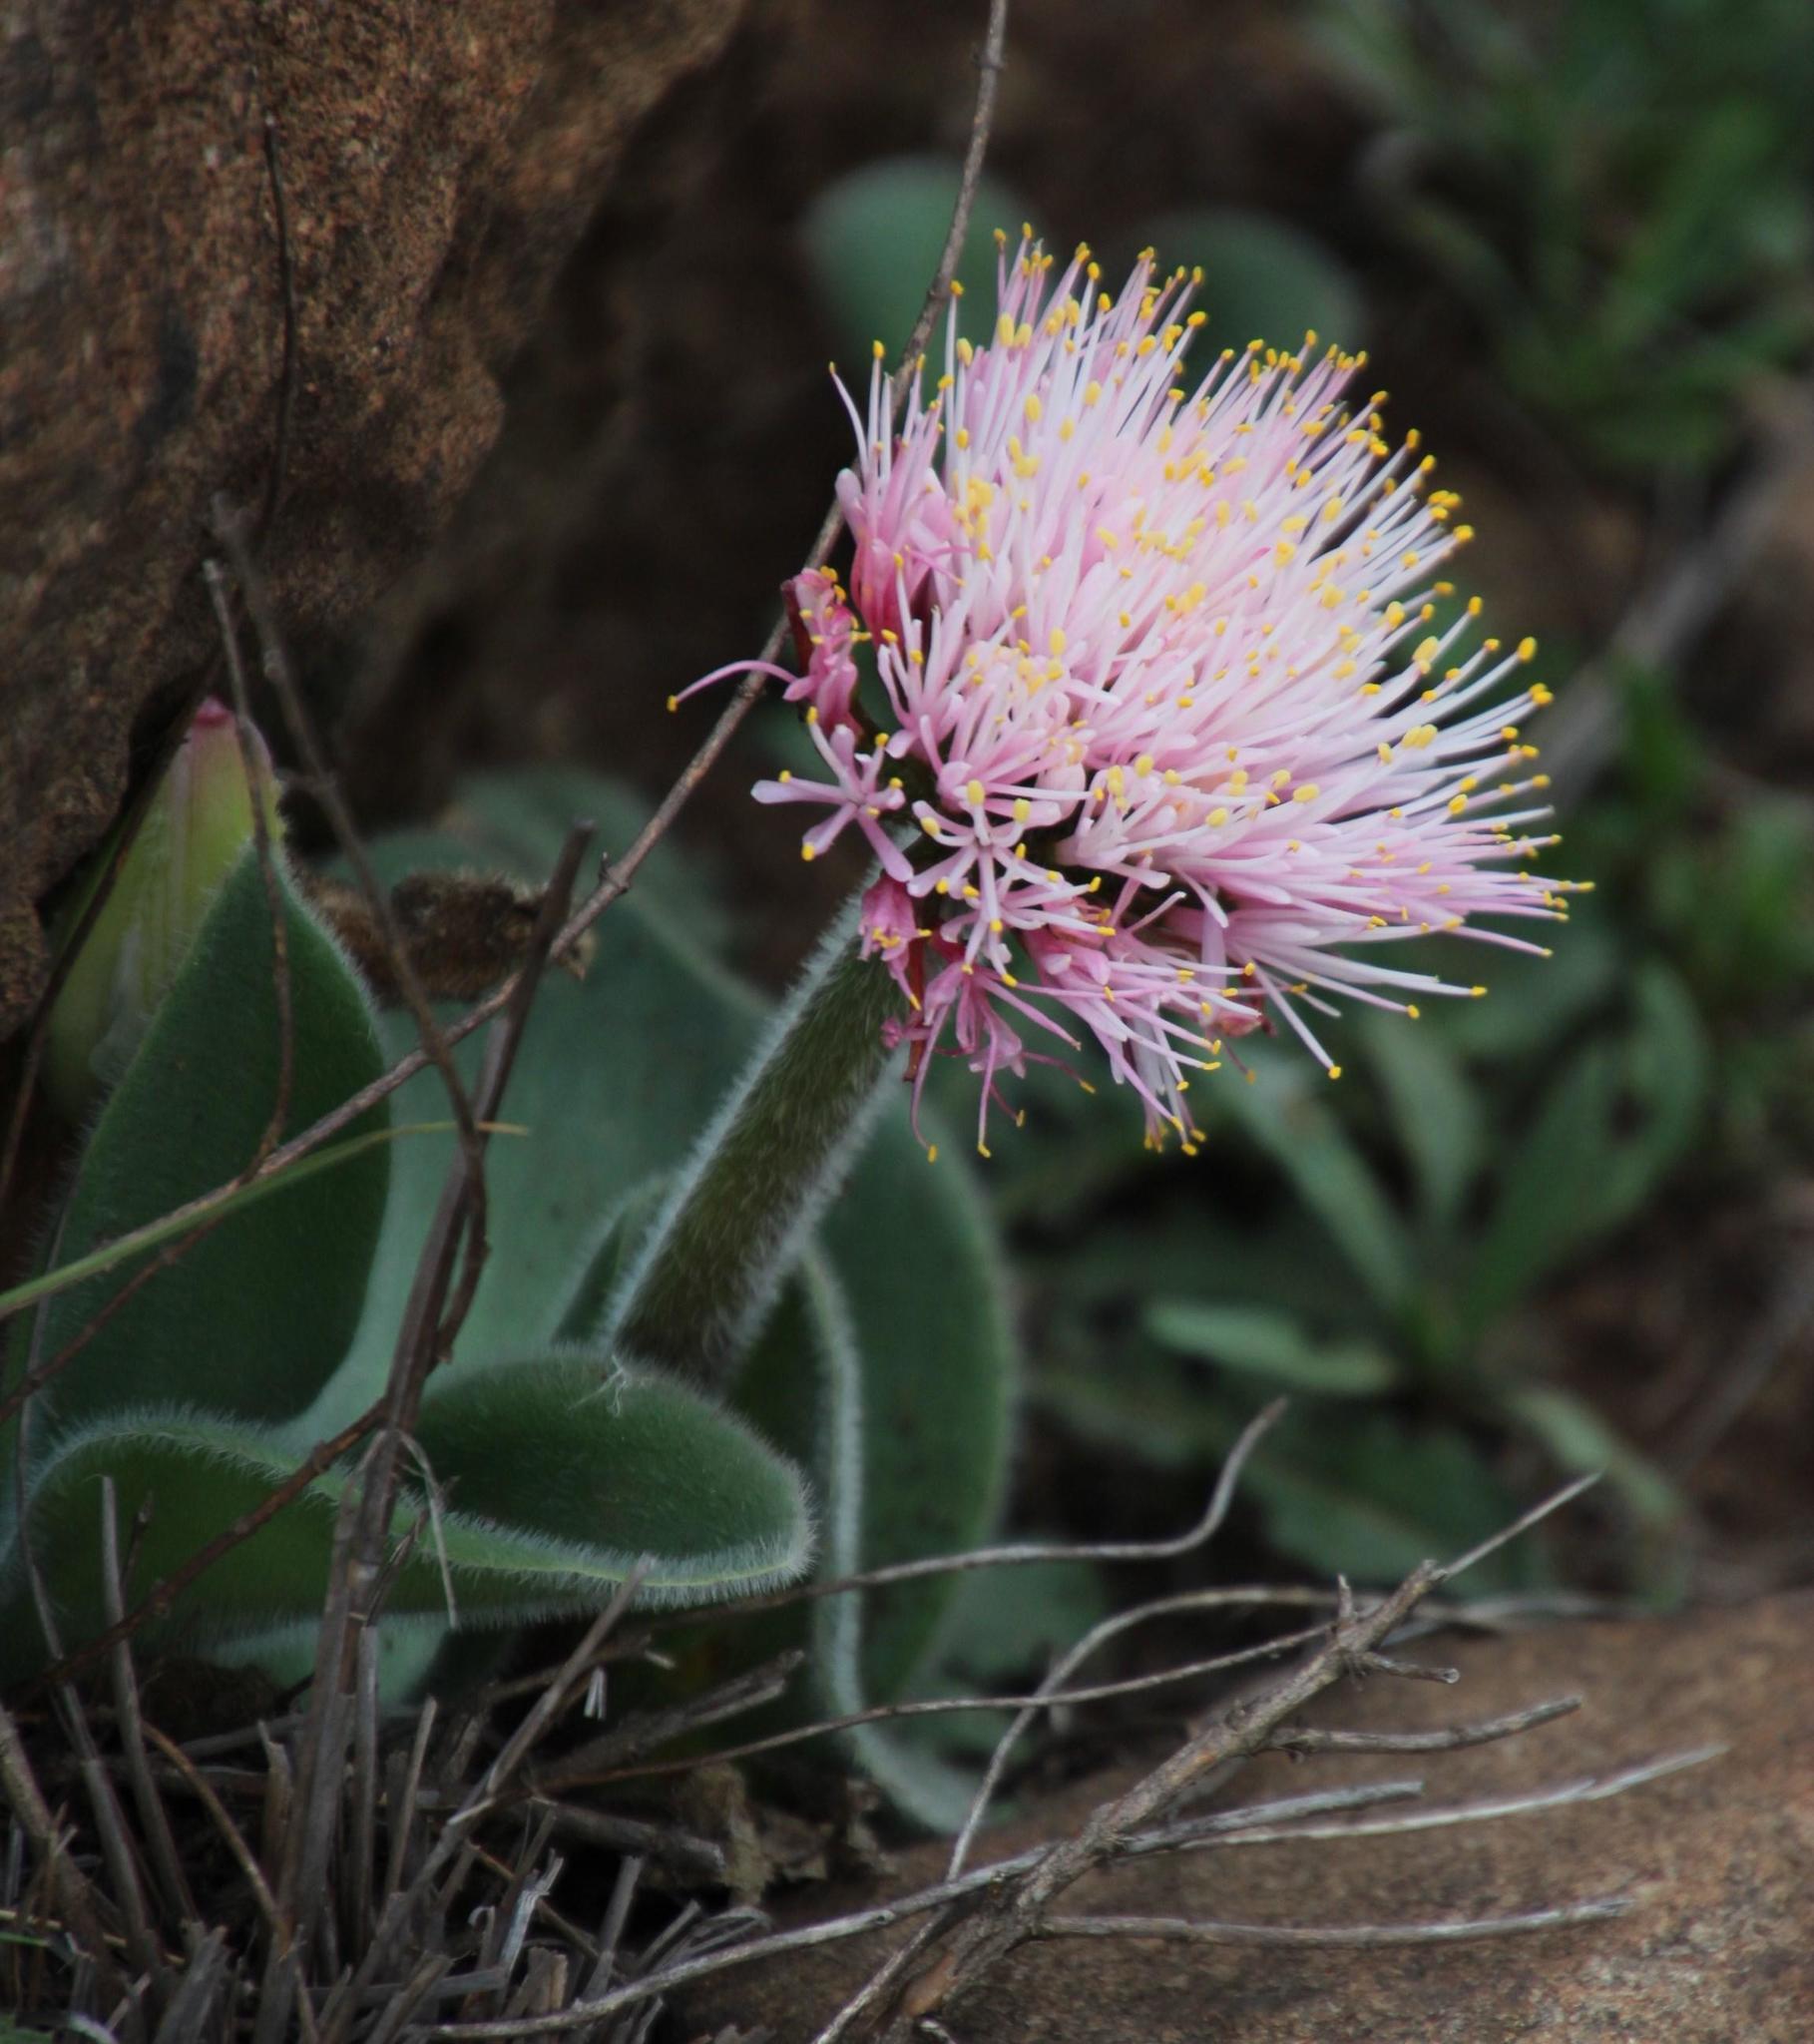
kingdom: Plantae
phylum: Tracheophyta
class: Liliopsida
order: Asparagales
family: Amaryllidaceae
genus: Haemanthus
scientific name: Haemanthus humilis
